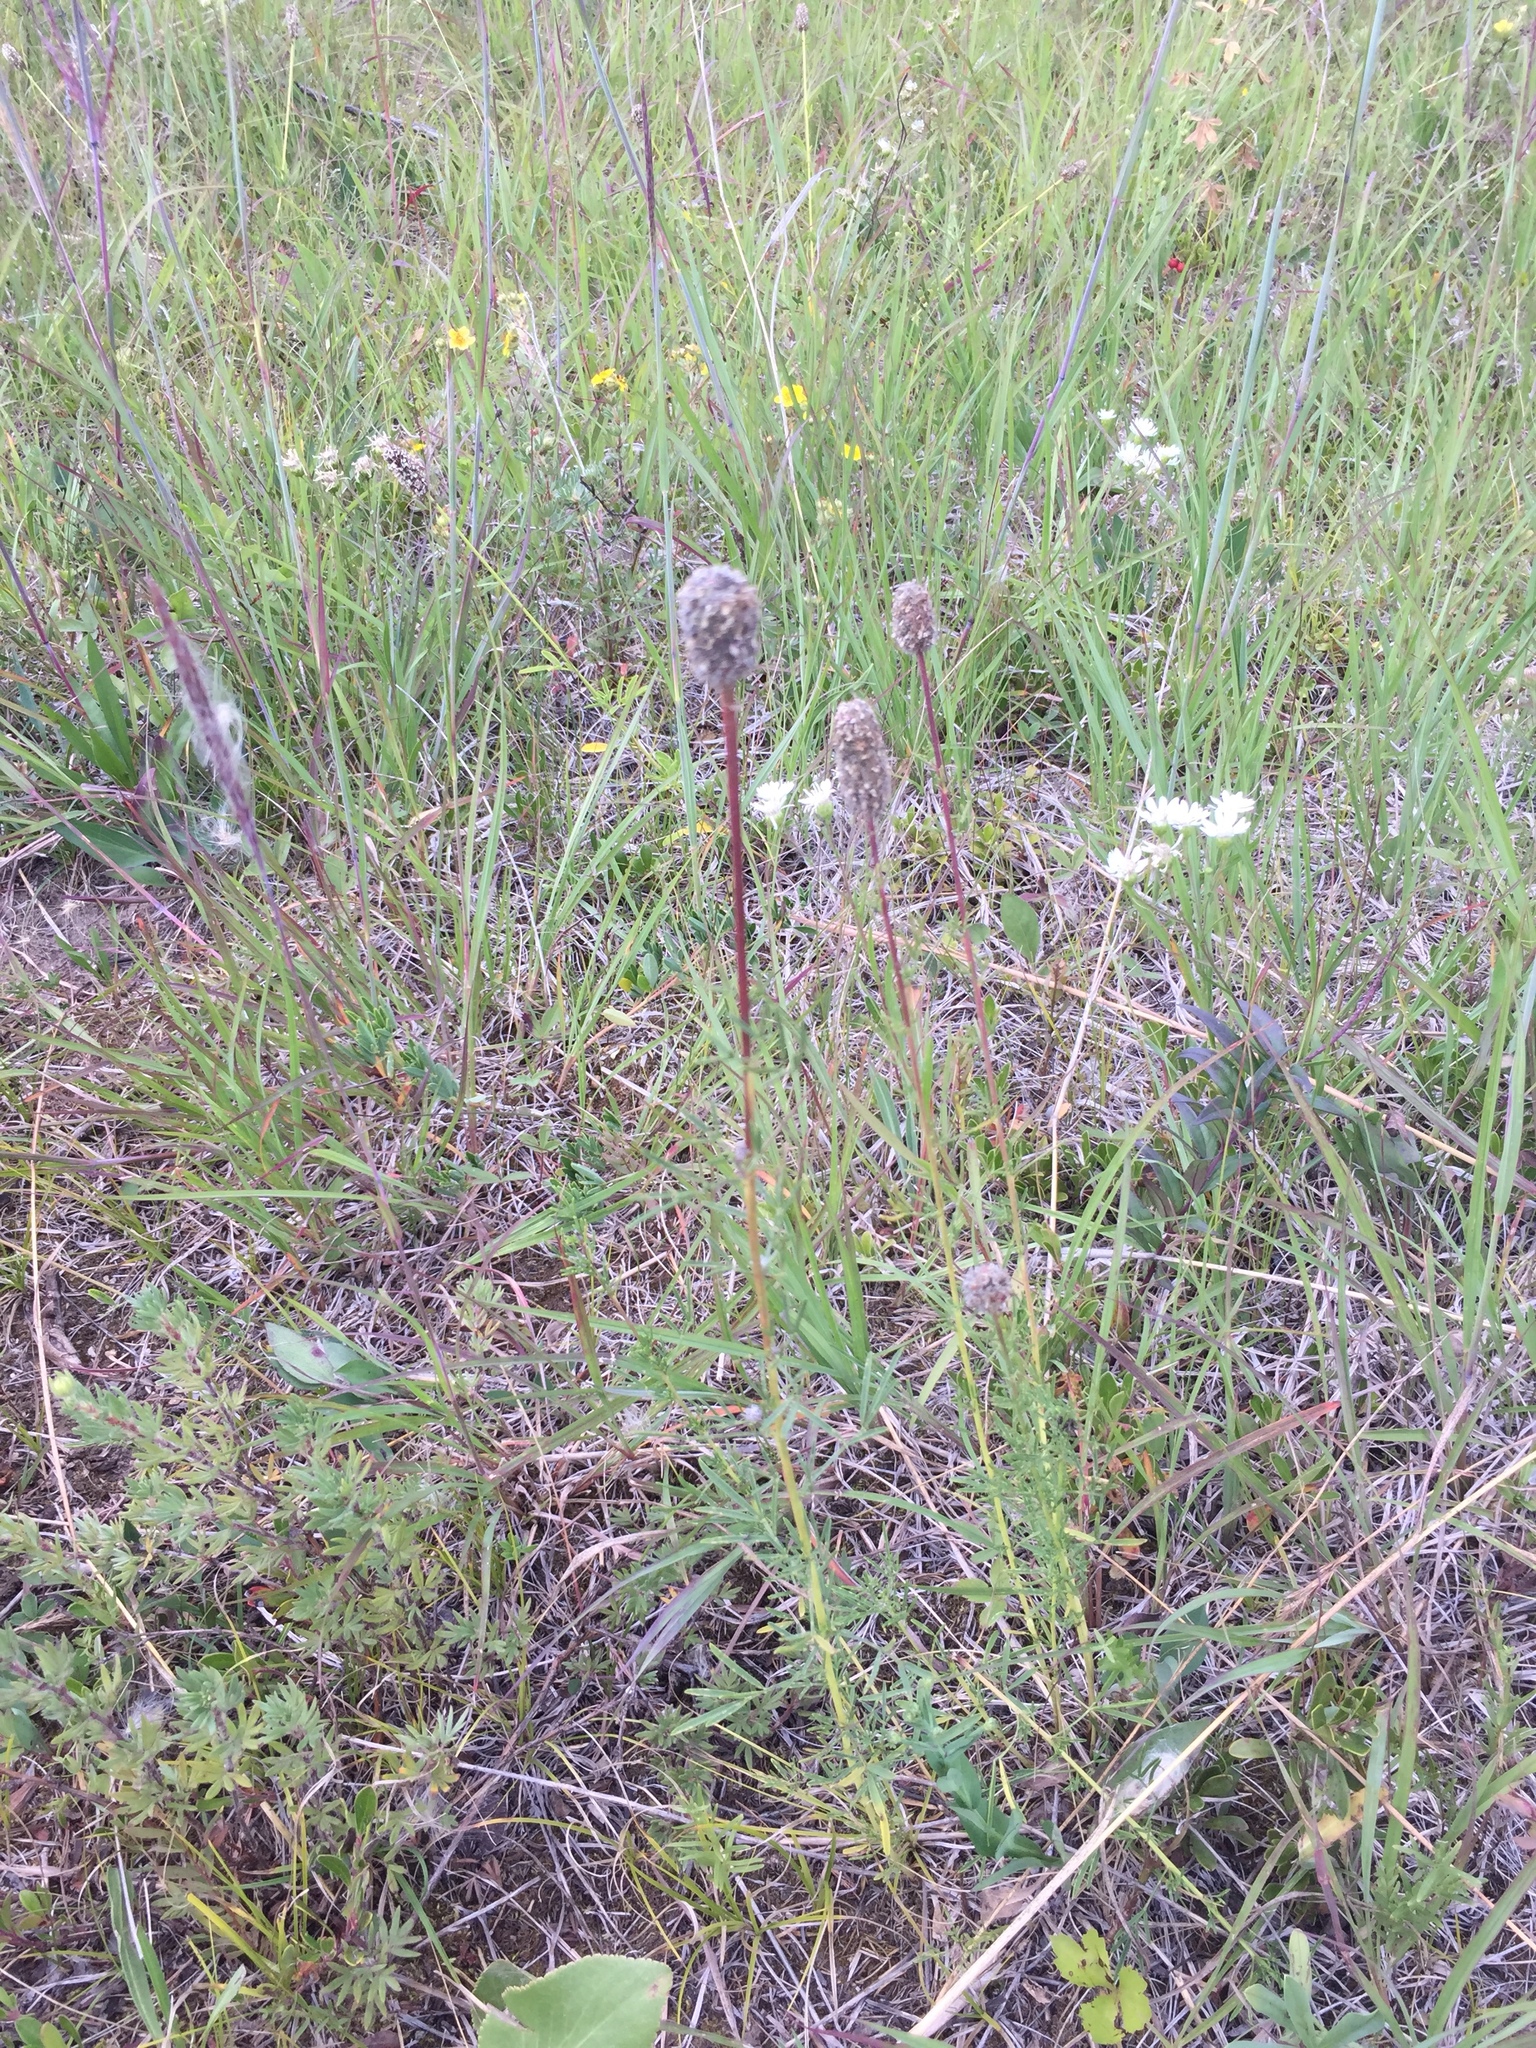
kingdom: Plantae
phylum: Tracheophyta
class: Magnoliopsida
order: Fabales
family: Fabaceae
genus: Dalea
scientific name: Dalea purpurea
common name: Purple prairie-clover
